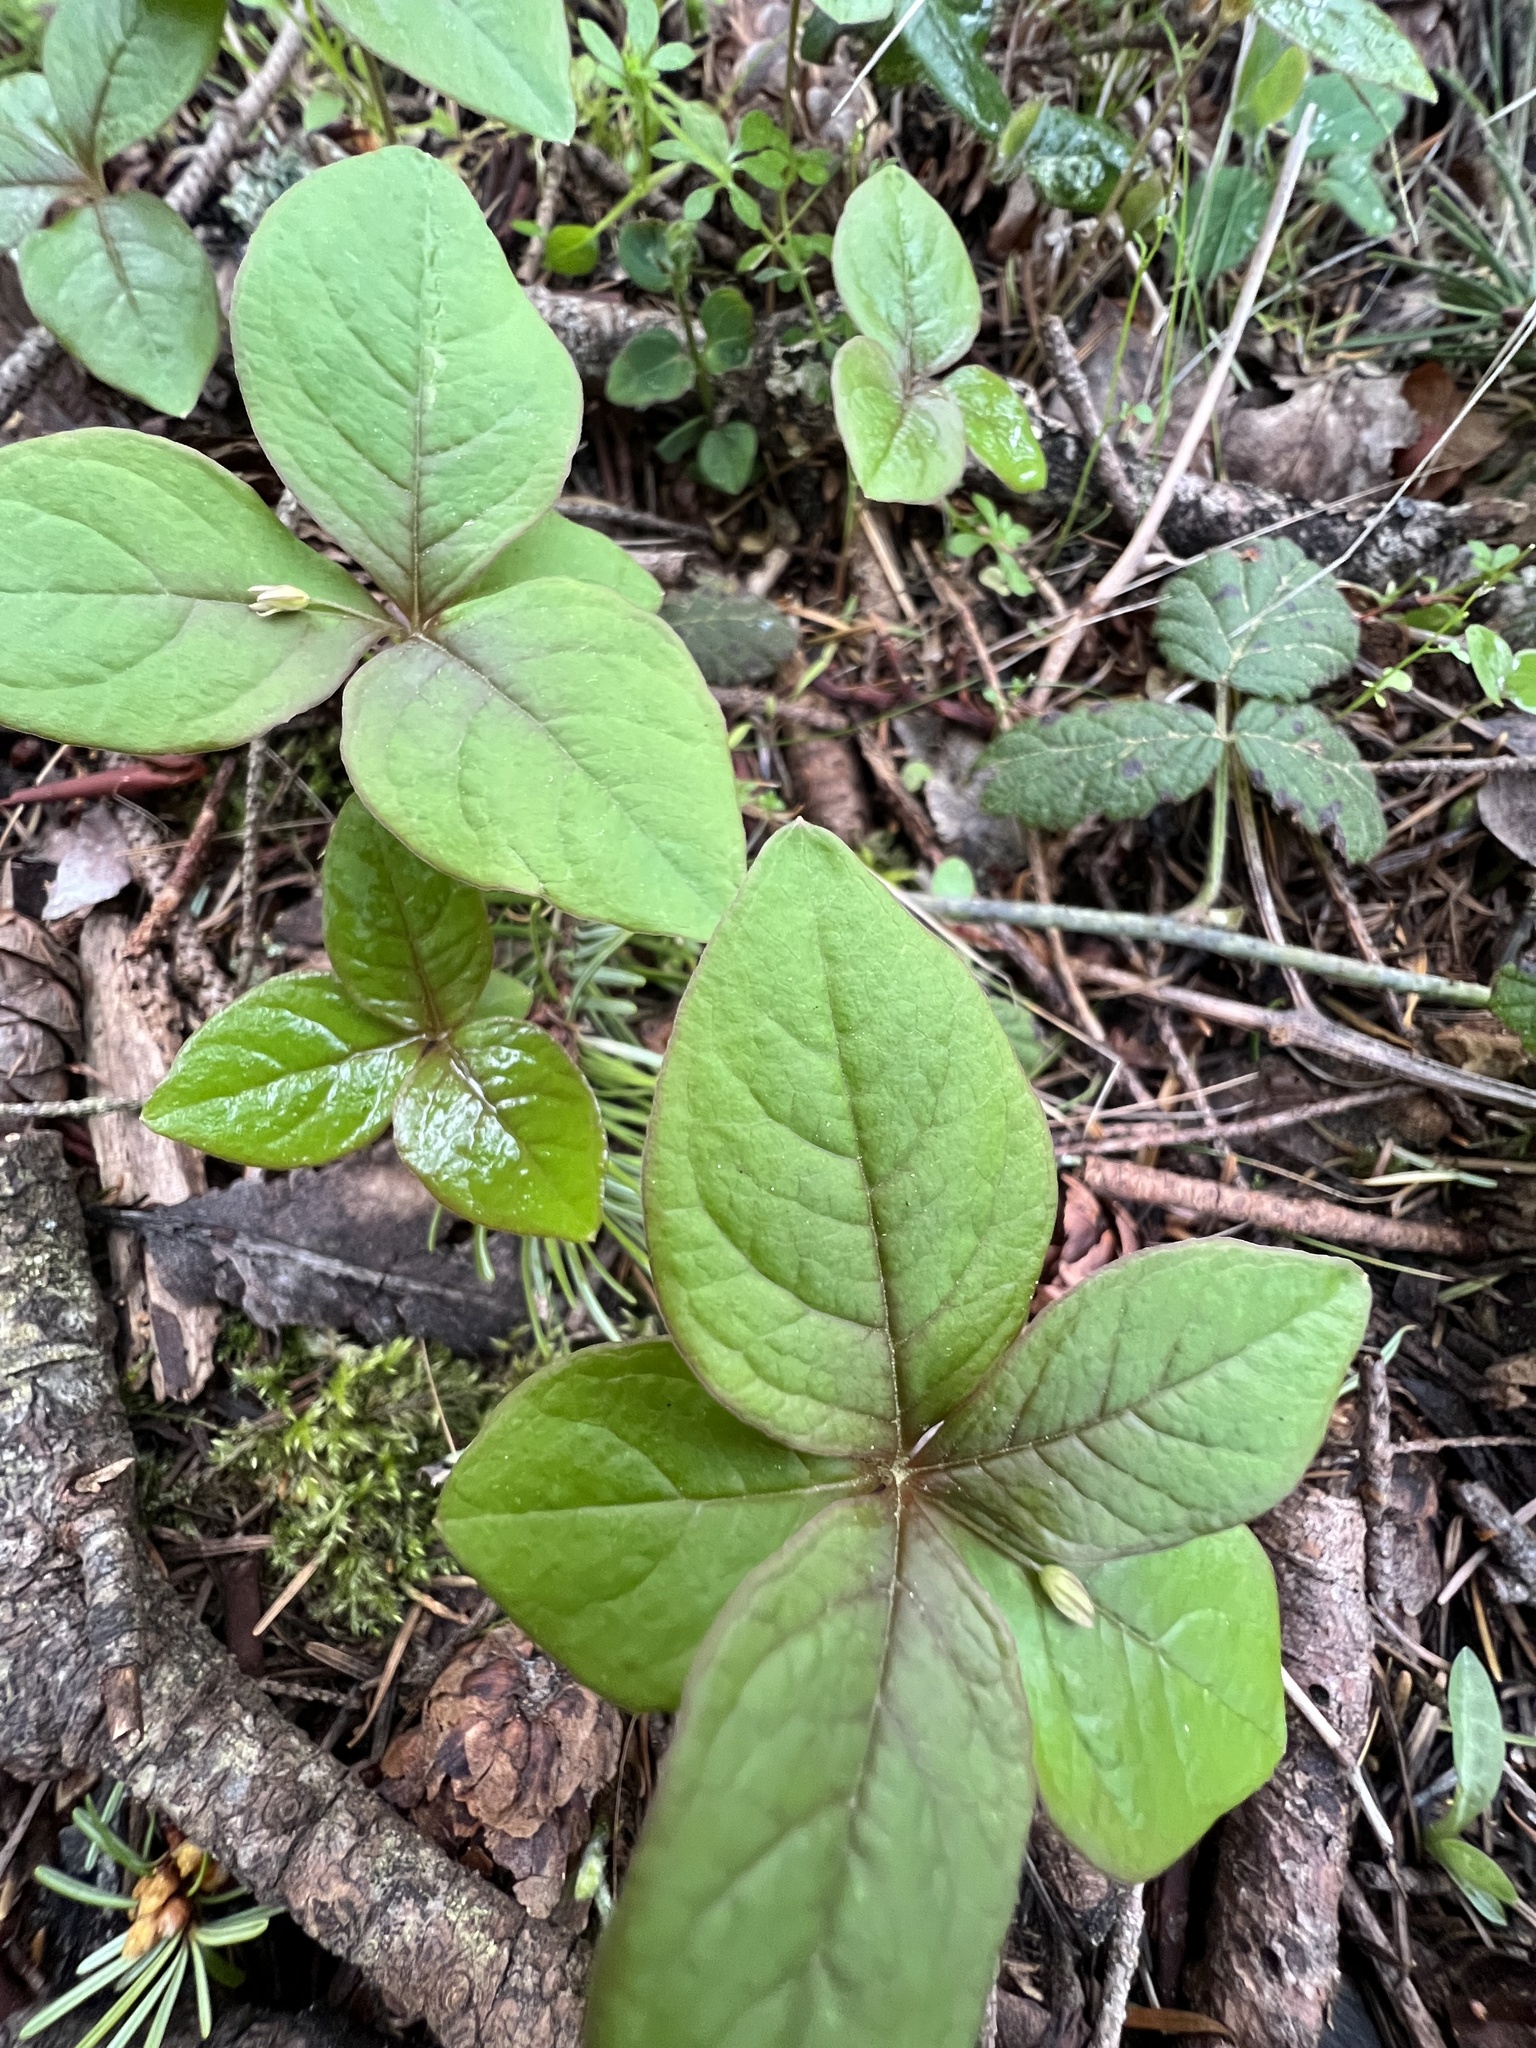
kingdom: Plantae
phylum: Tracheophyta
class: Magnoliopsida
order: Ericales
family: Primulaceae
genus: Lysimachia
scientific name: Lysimachia latifolia
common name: Pacific starflower
